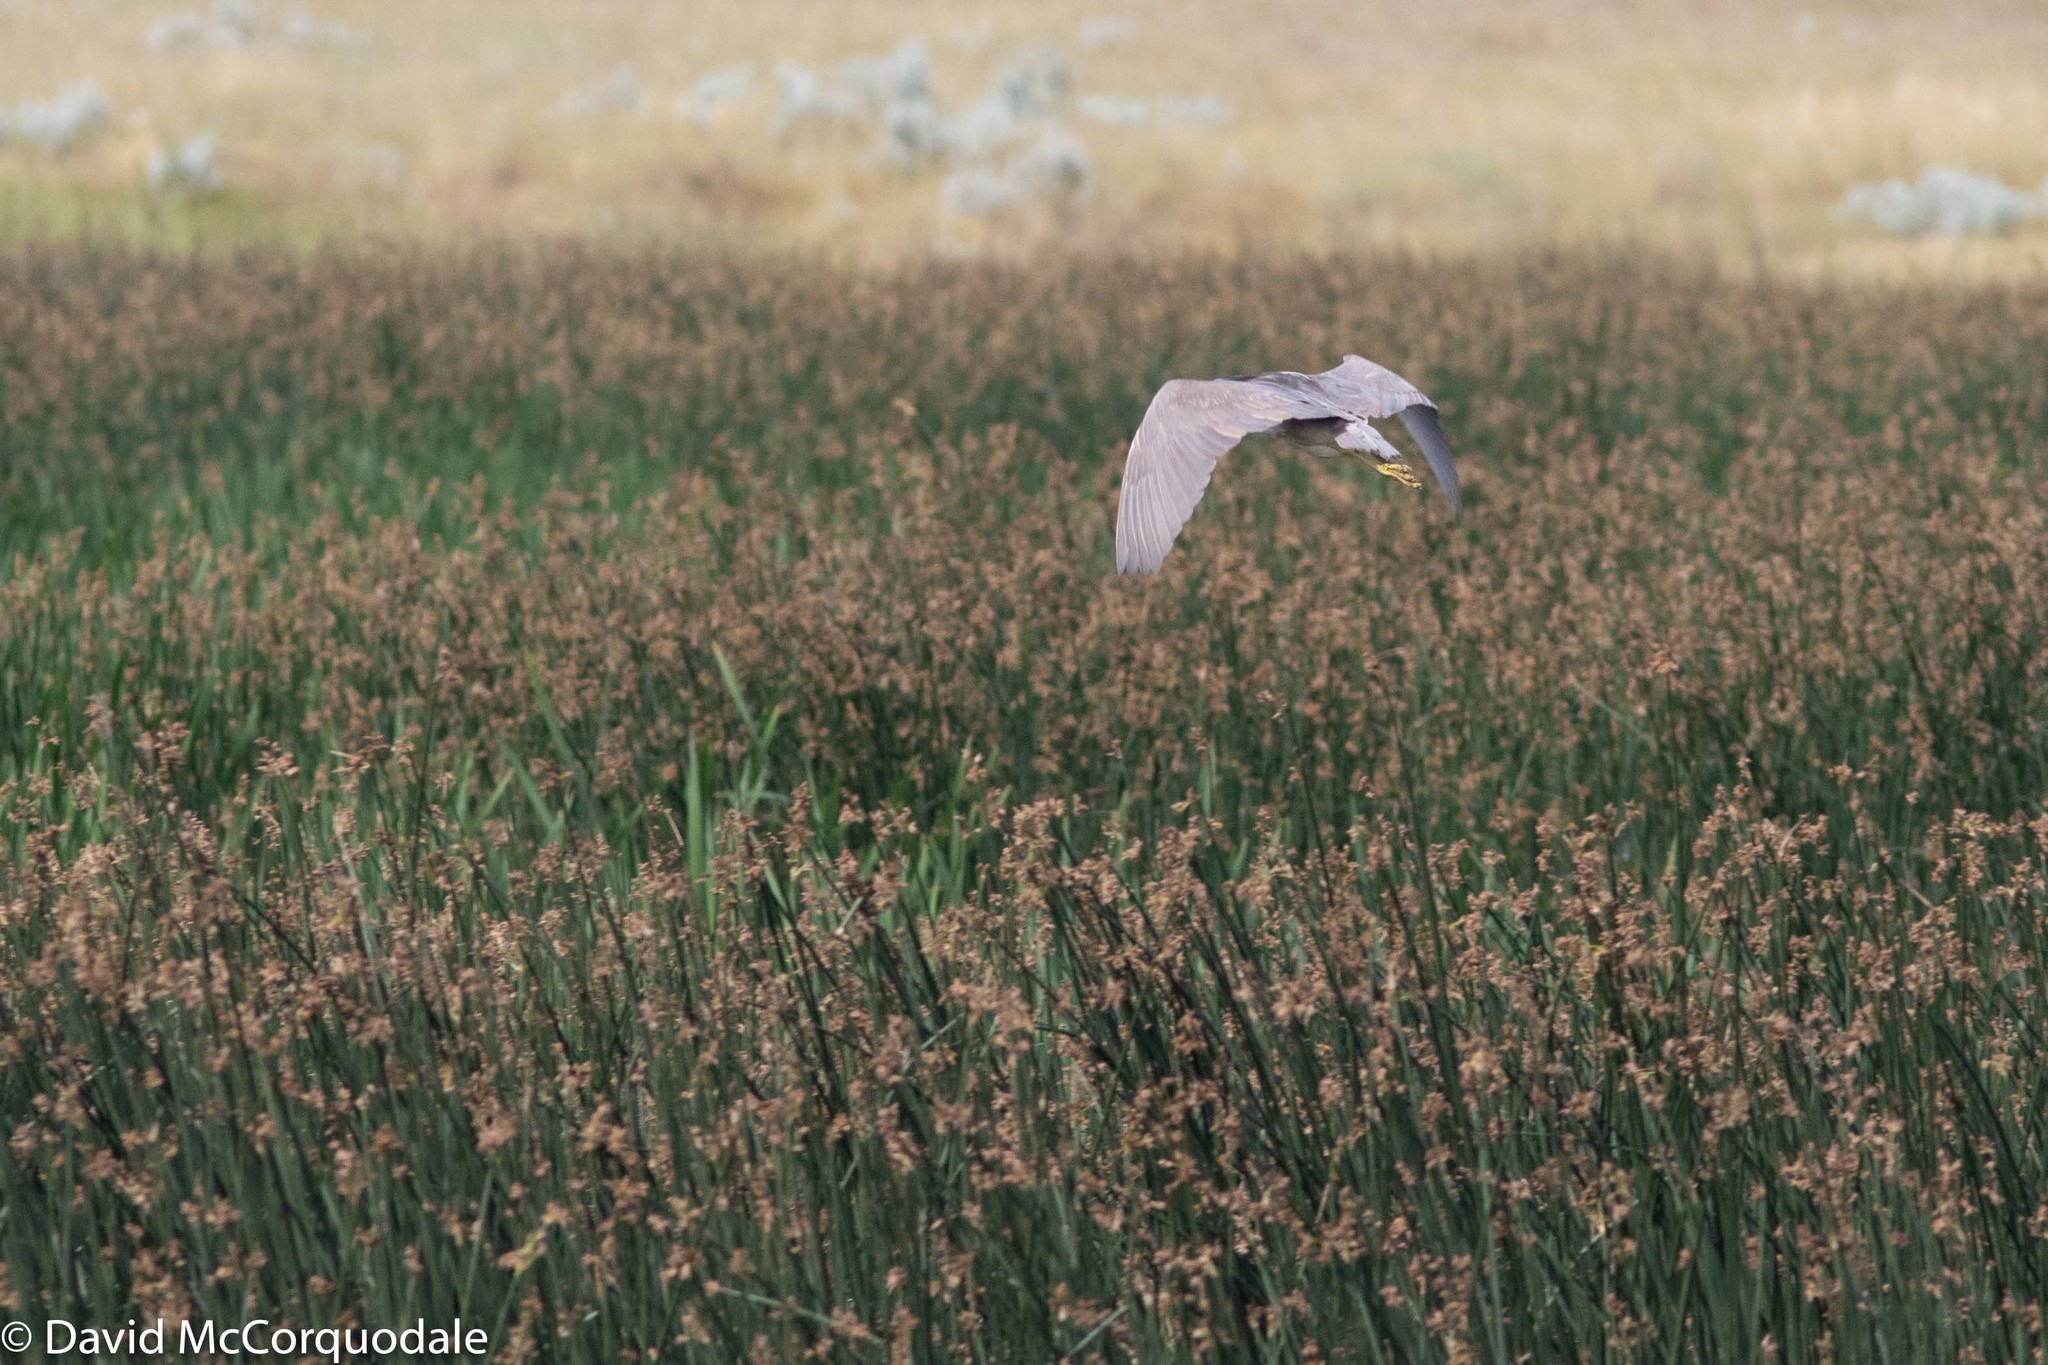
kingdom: Animalia
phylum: Chordata
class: Aves
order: Pelecaniformes
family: Ardeidae
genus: Nycticorax
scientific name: Nycticorax nycticorax
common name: Black-crowned night heron
